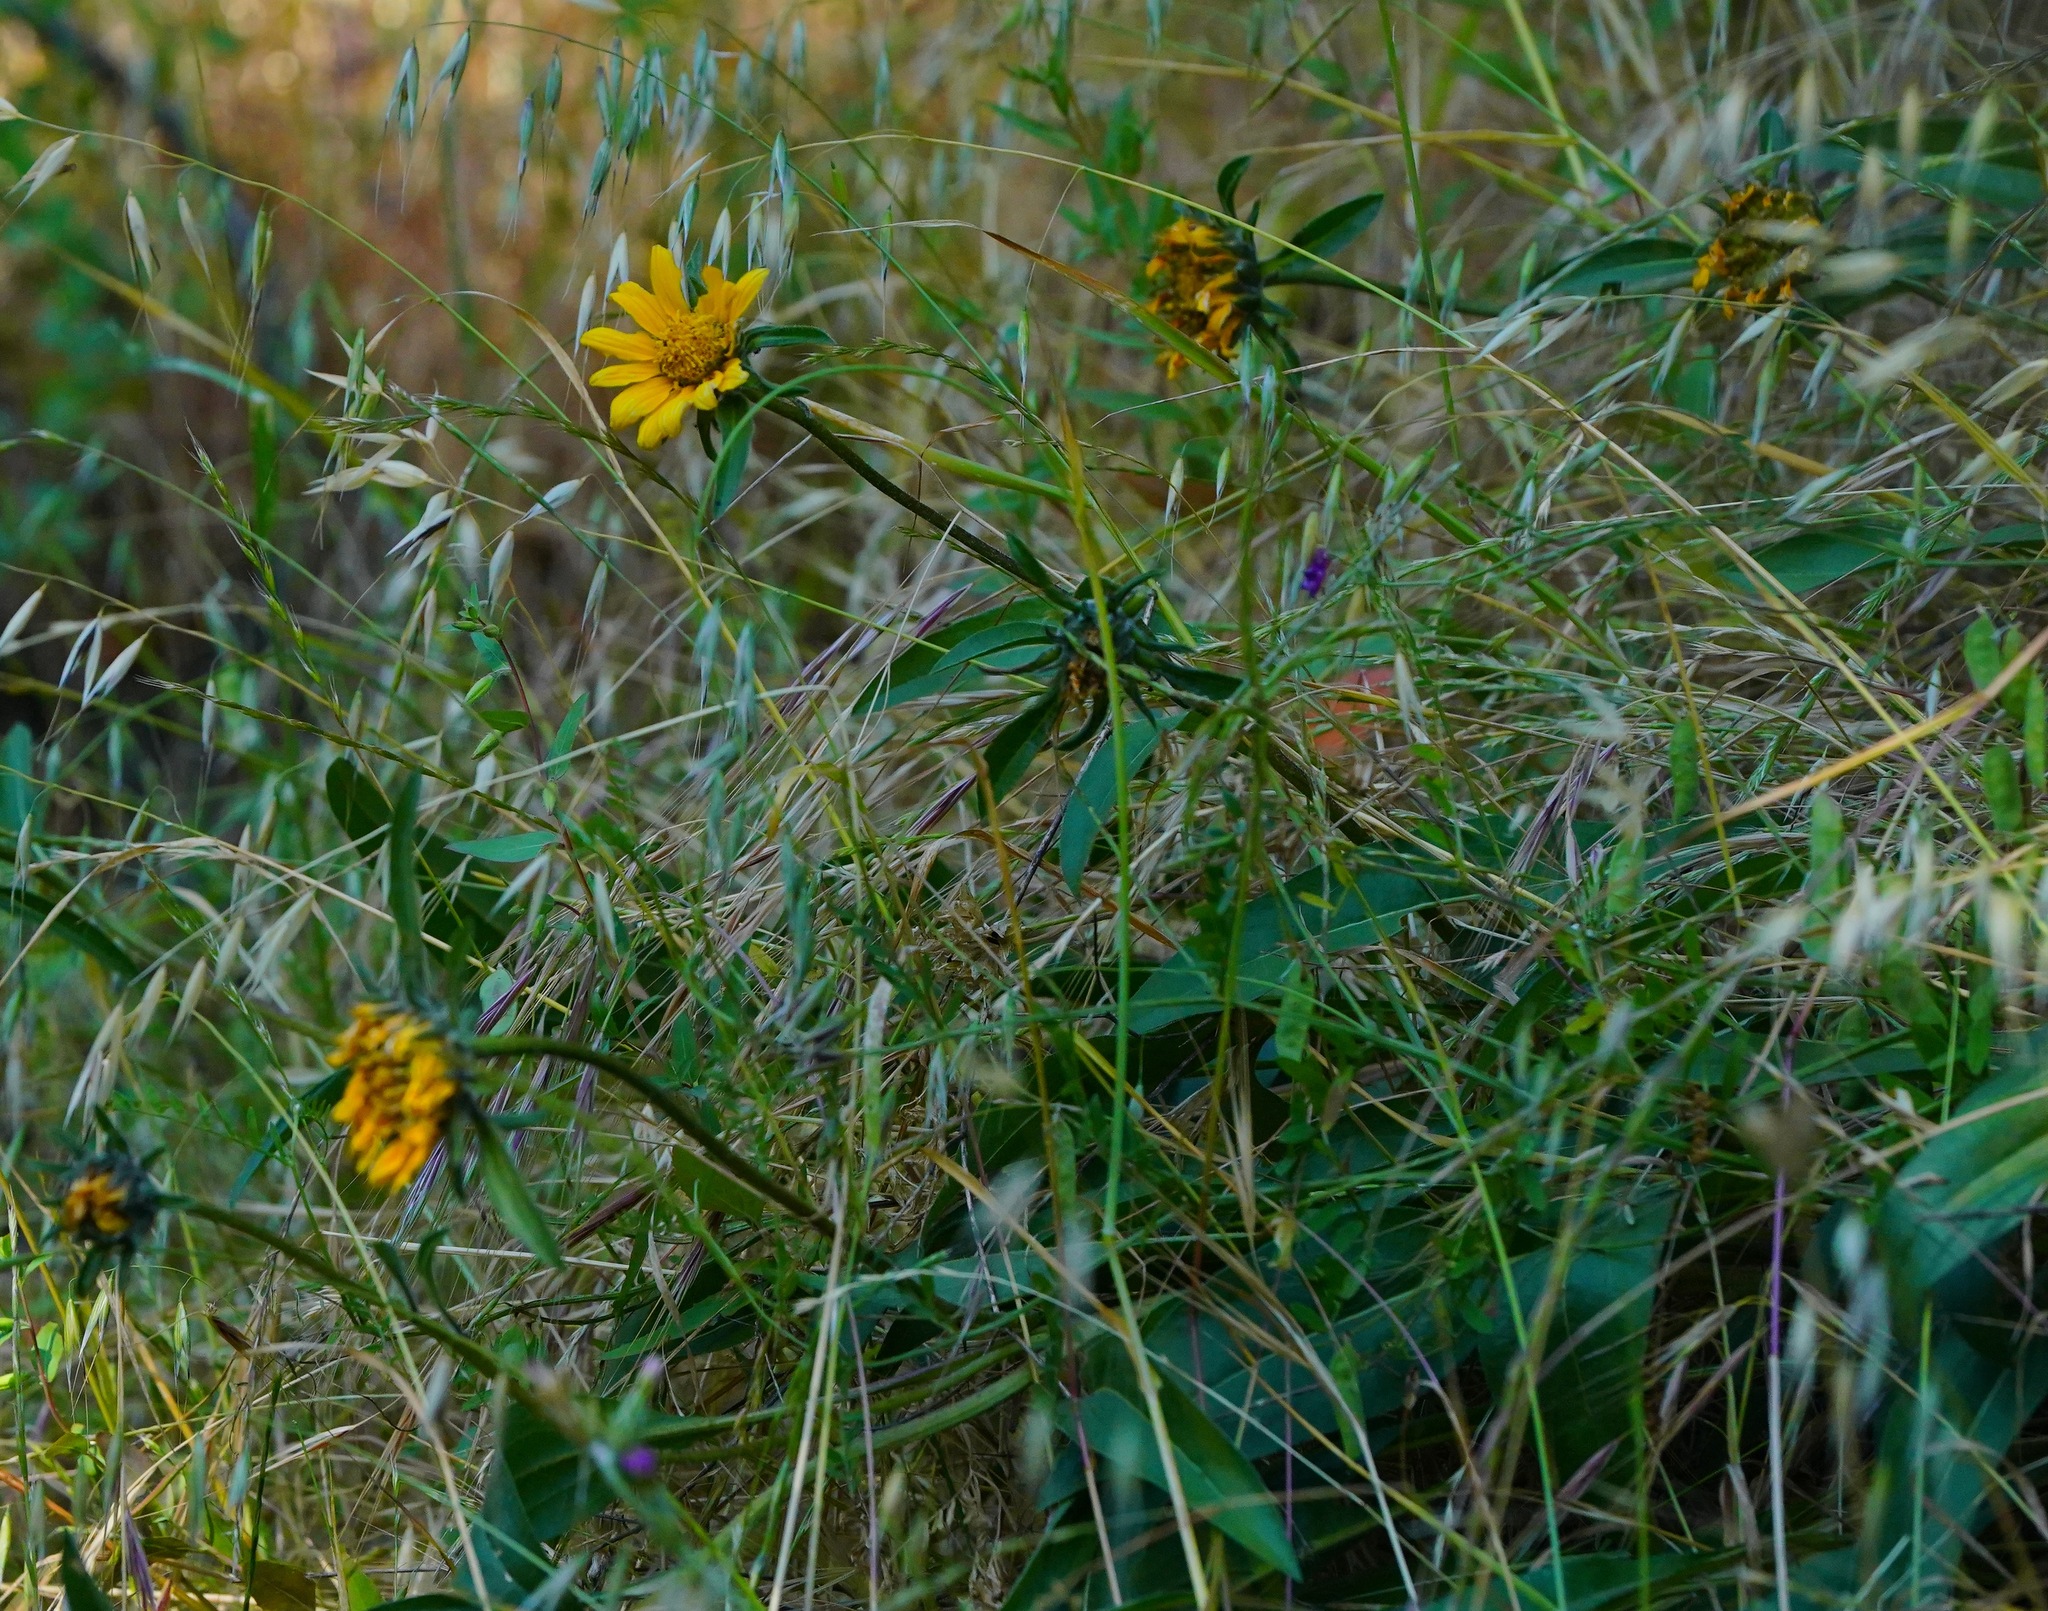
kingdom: Plantae
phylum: Tracheophyta
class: Magnoliopsida
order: Asterales
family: Asteraceae
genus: Helianthella
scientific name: Helianthella castanea
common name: Diablo helianthella
